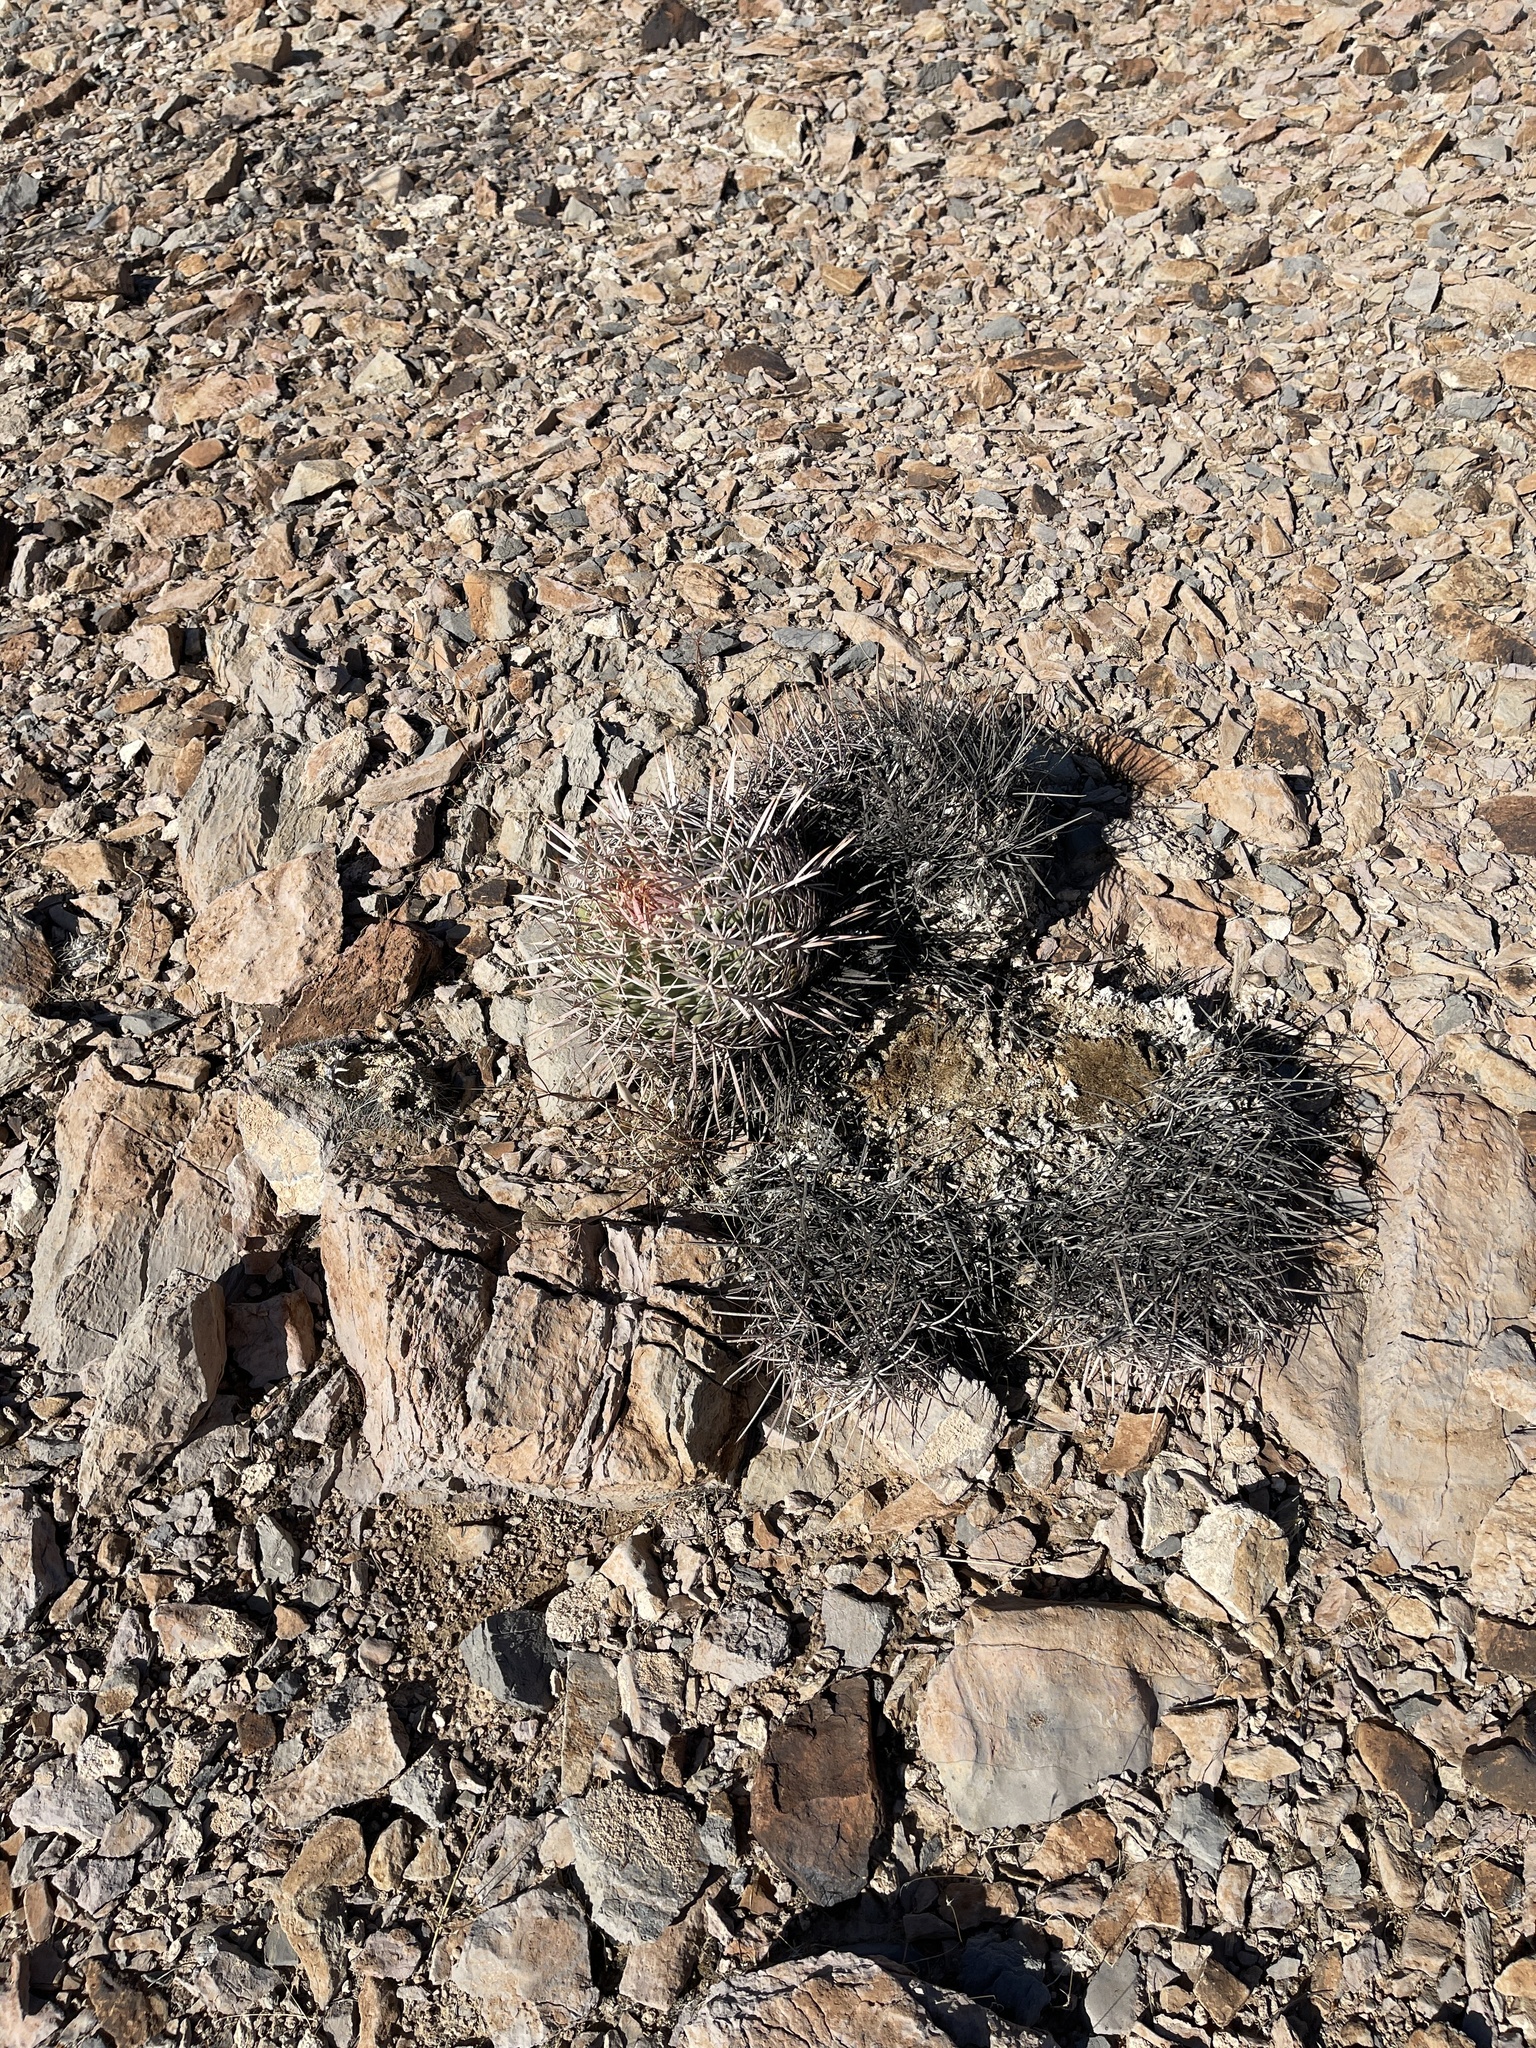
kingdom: Plantae
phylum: Tracheophyta
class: Magnoliopsida
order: Caryophyllales
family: Cactaceae
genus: Echinocactus
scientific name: Echinocactus polycephalus
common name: Cottontop cactus
